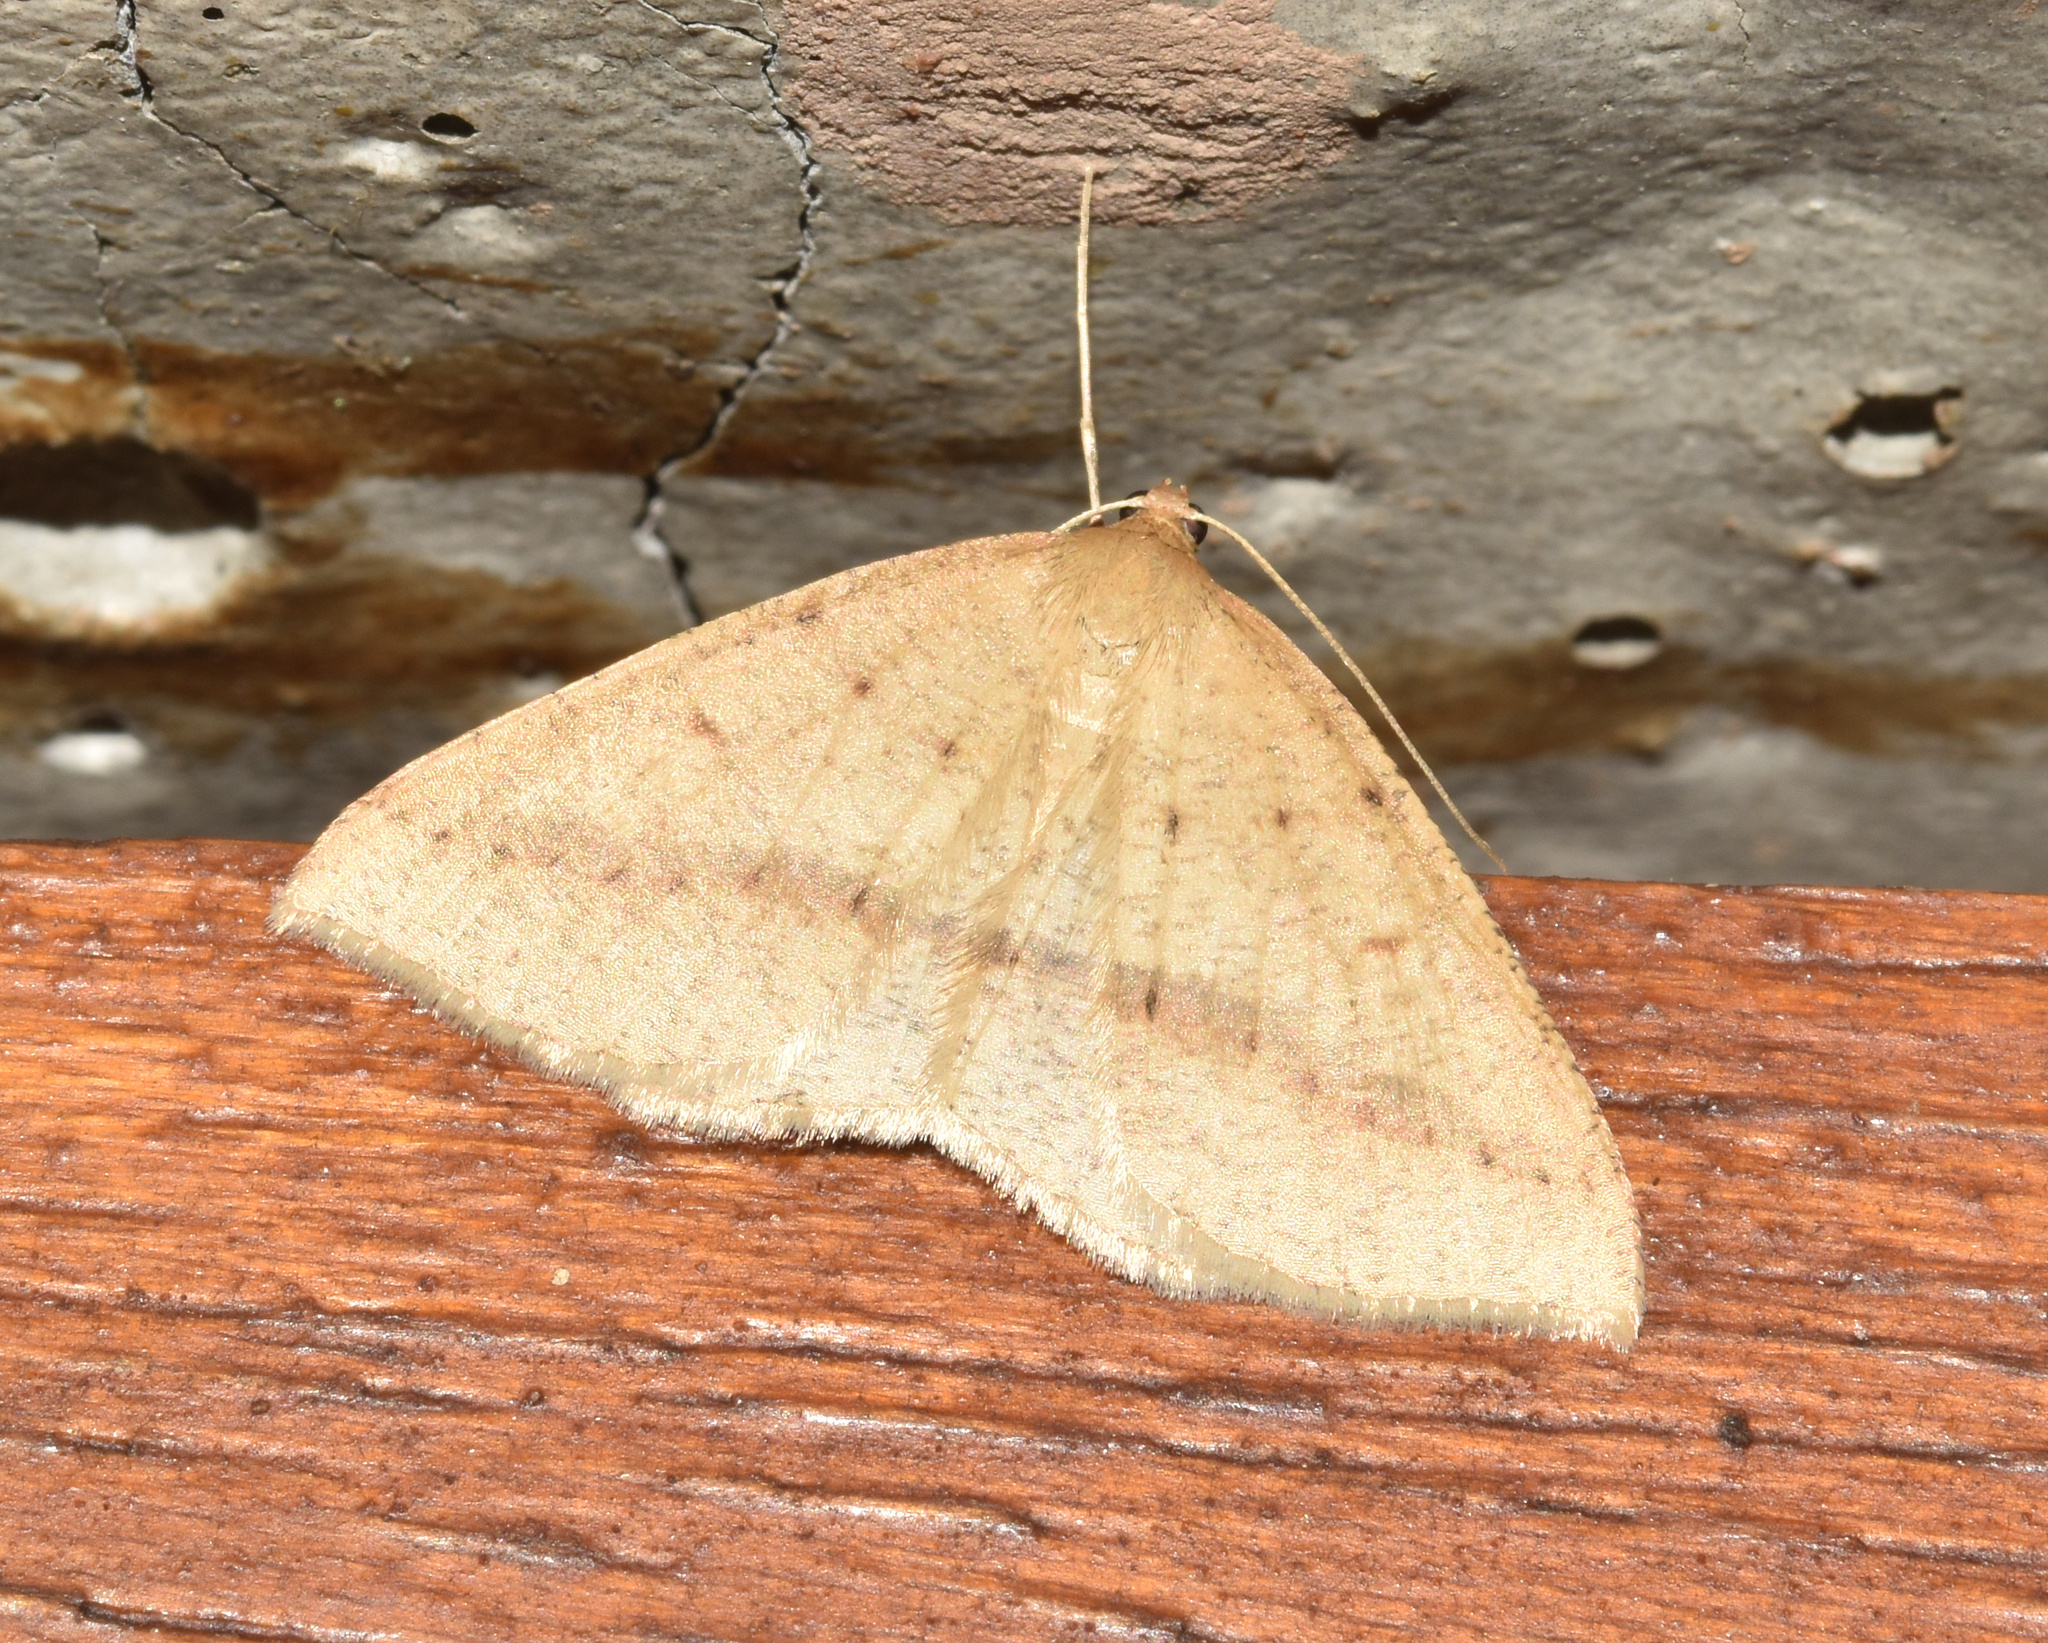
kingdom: Animalia
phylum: Arthropoda
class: Insecta
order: Lepidoptera
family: Geometridae
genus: Palaeaspilates
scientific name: Palaeaspilates inoffensa
